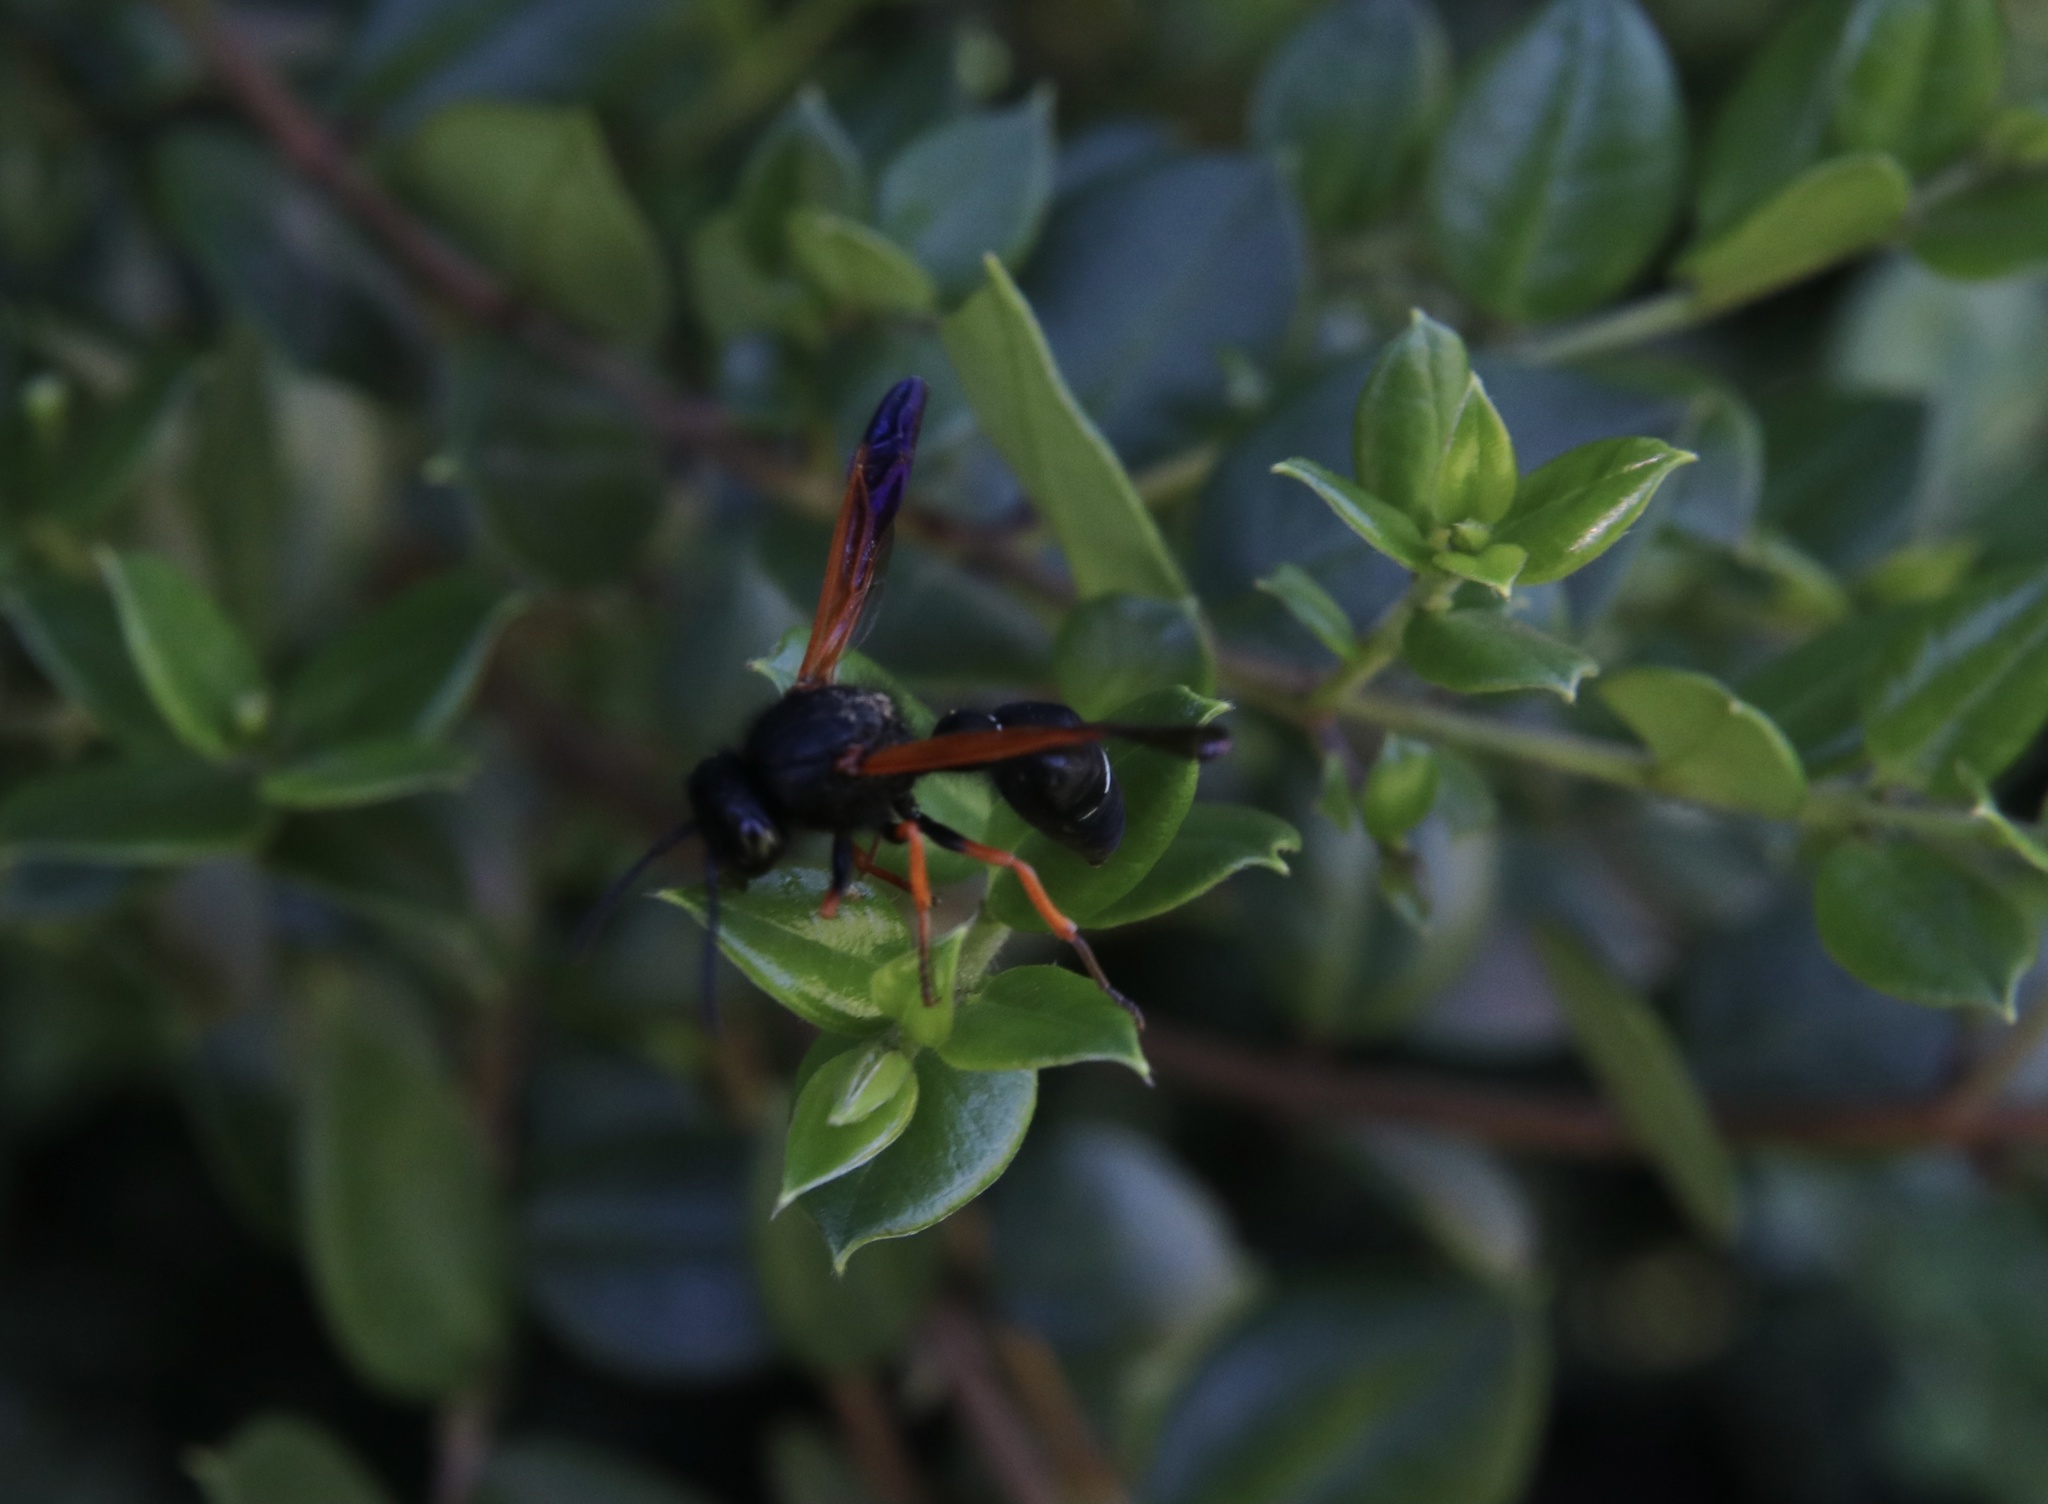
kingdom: Animalia
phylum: Arthropoda
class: Insecta
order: Hymenoptera
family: Vespidae
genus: Hypodynerus
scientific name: Hypodynerus colocolo
